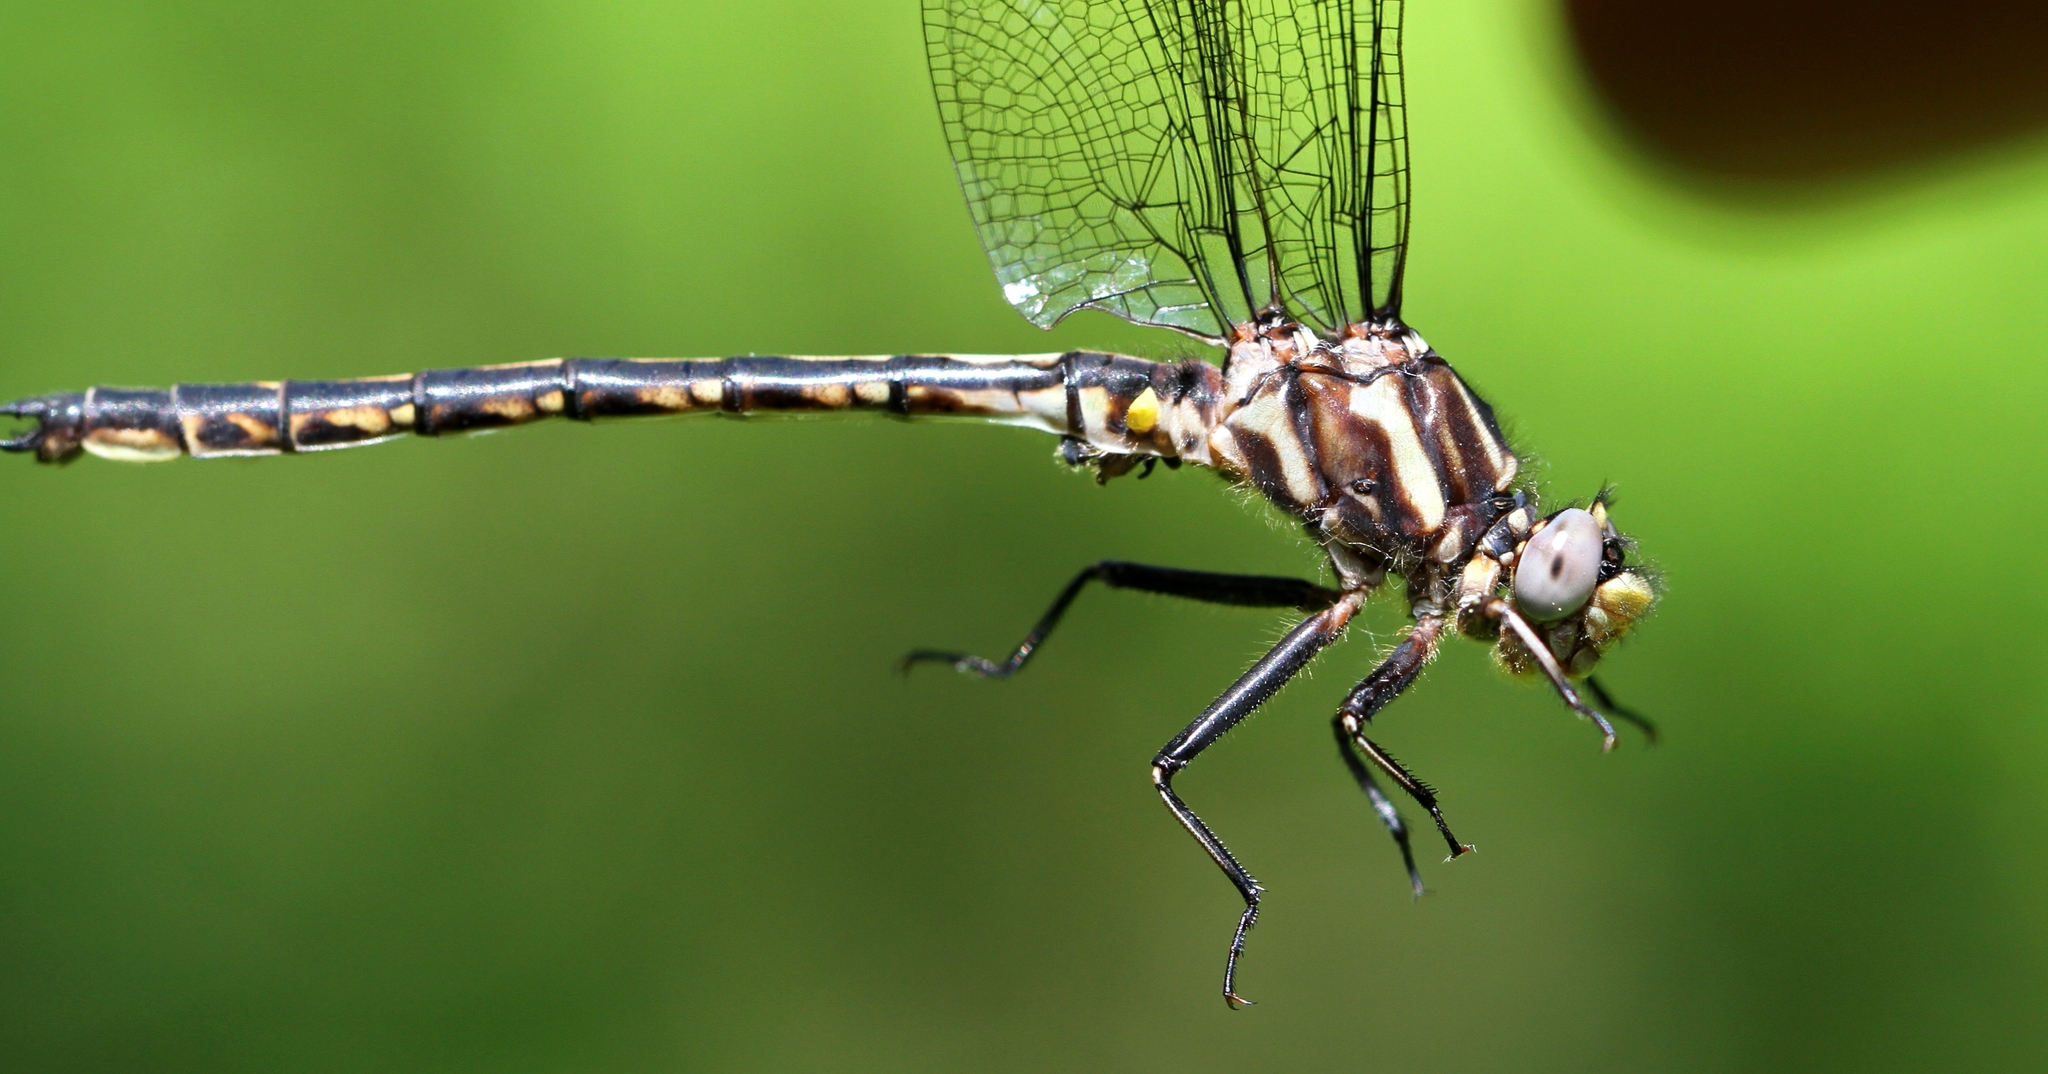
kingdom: Animalia
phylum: Arthropoda
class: Insecta
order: Odonata
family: Gomphidae
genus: Phanogomphus
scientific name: Phanogomphus spicatus
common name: Dusky clubtail
